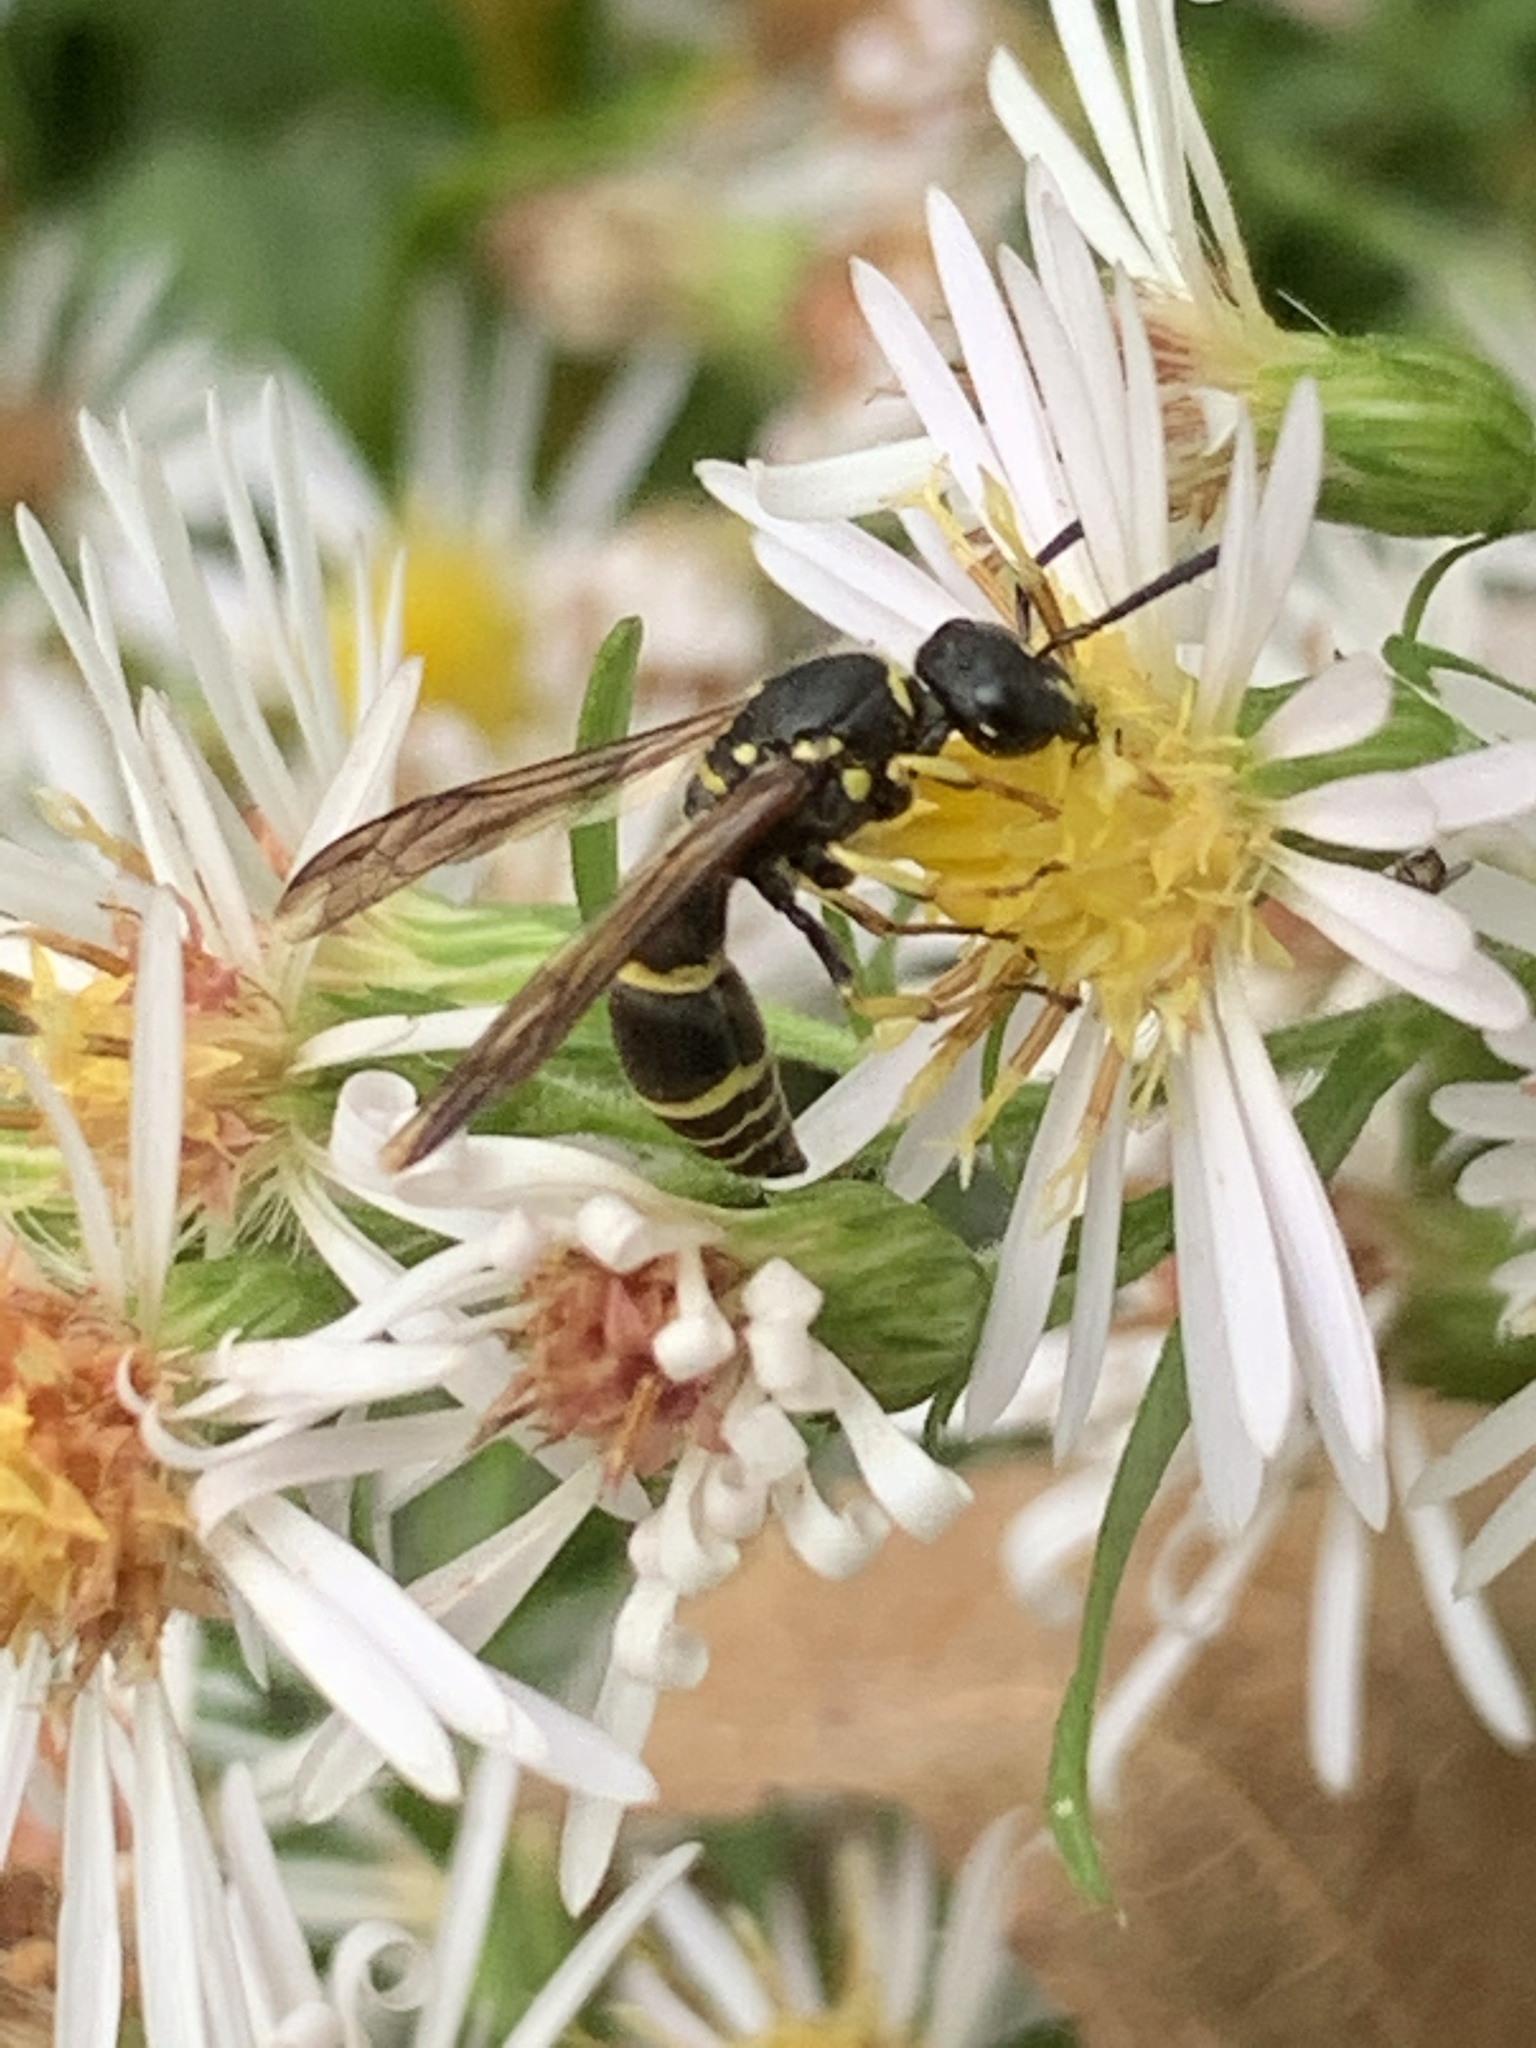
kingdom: Animalia
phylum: Arthropoda
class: Insecta
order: Hymenoptera
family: Vespidae
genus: Ancistrocerus
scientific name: Ancistrocerus adiabatus
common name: Bramble mason wasp
